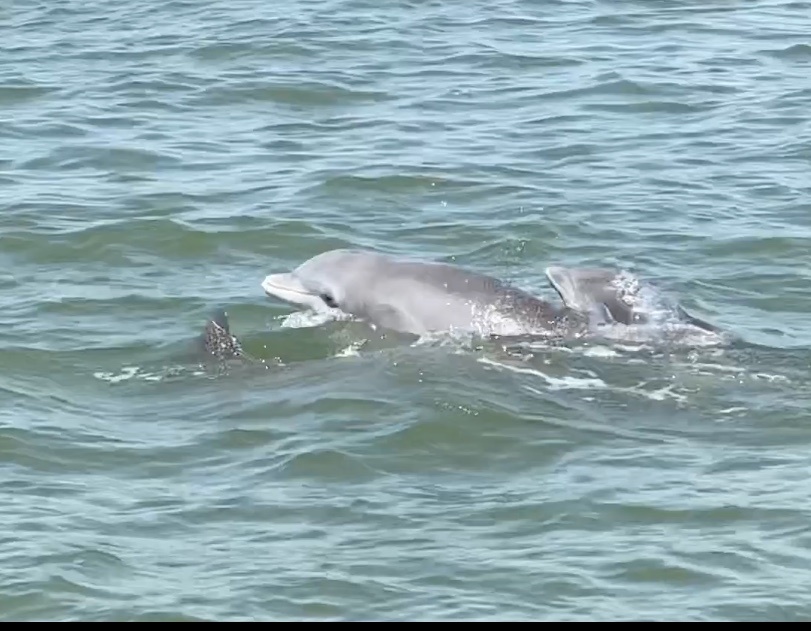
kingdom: Animalia
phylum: Chordata
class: Mammalia
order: Cetacea
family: Delphinidae
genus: Tursiops
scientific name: Tursiops truncatus
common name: Bottlenose dolphin
